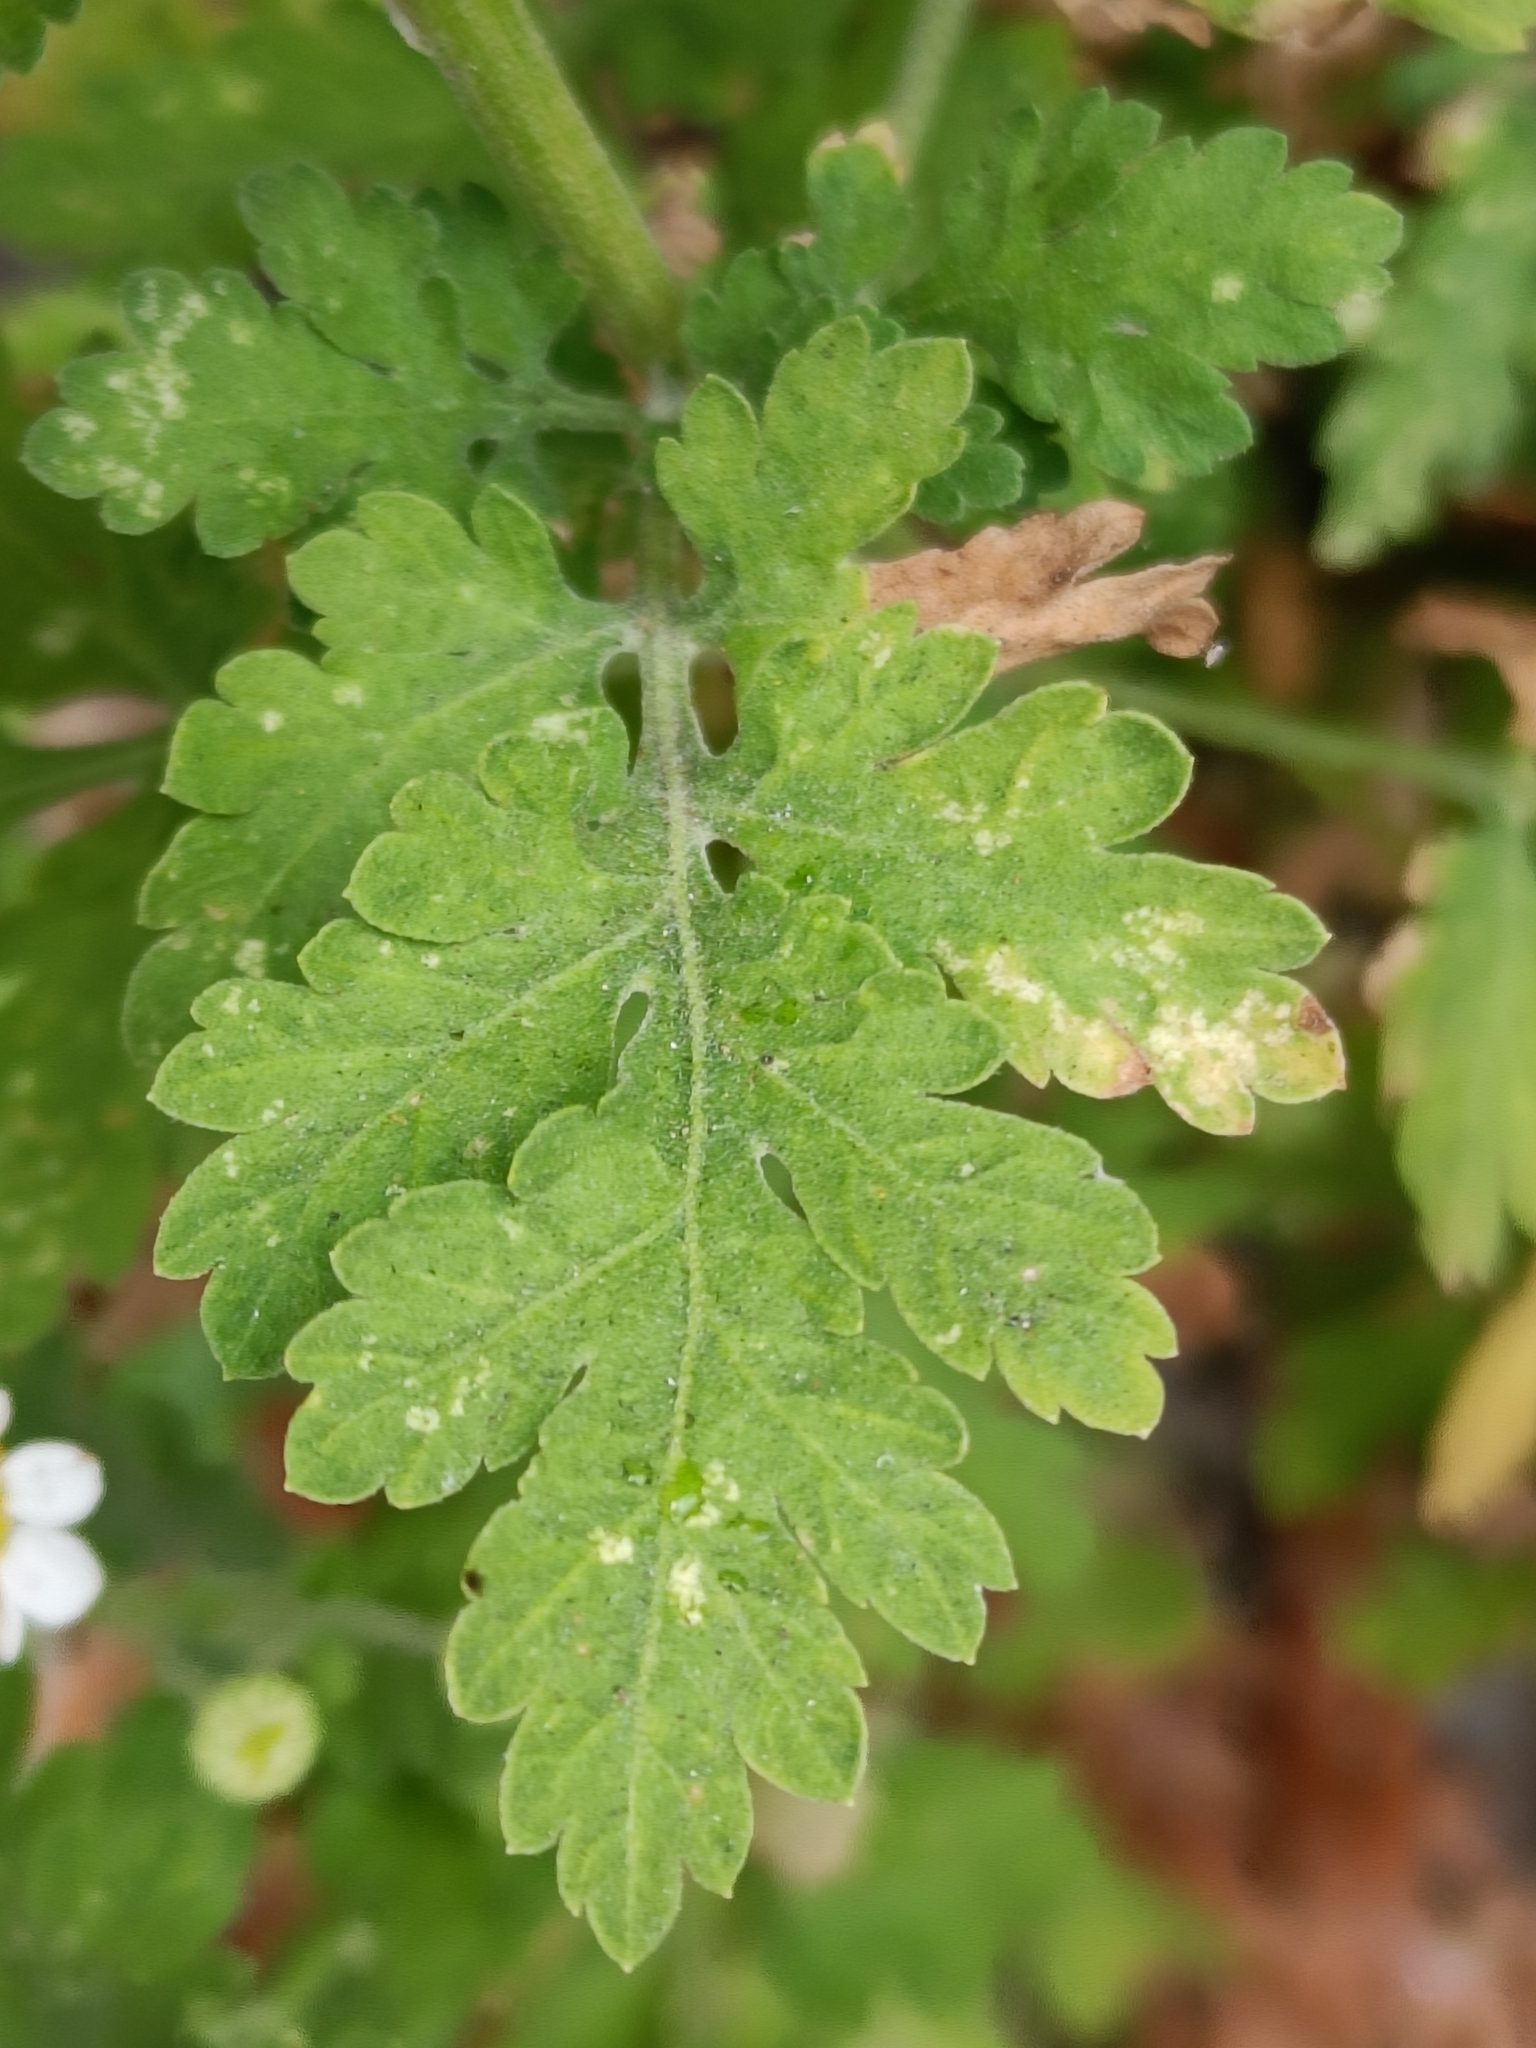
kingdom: Plantae
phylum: Tracheophyta
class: Magnoliopsida
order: Asterales
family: Asteraceae
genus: Tanacetum
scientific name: Tanacetum parthenium
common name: Feverfew
